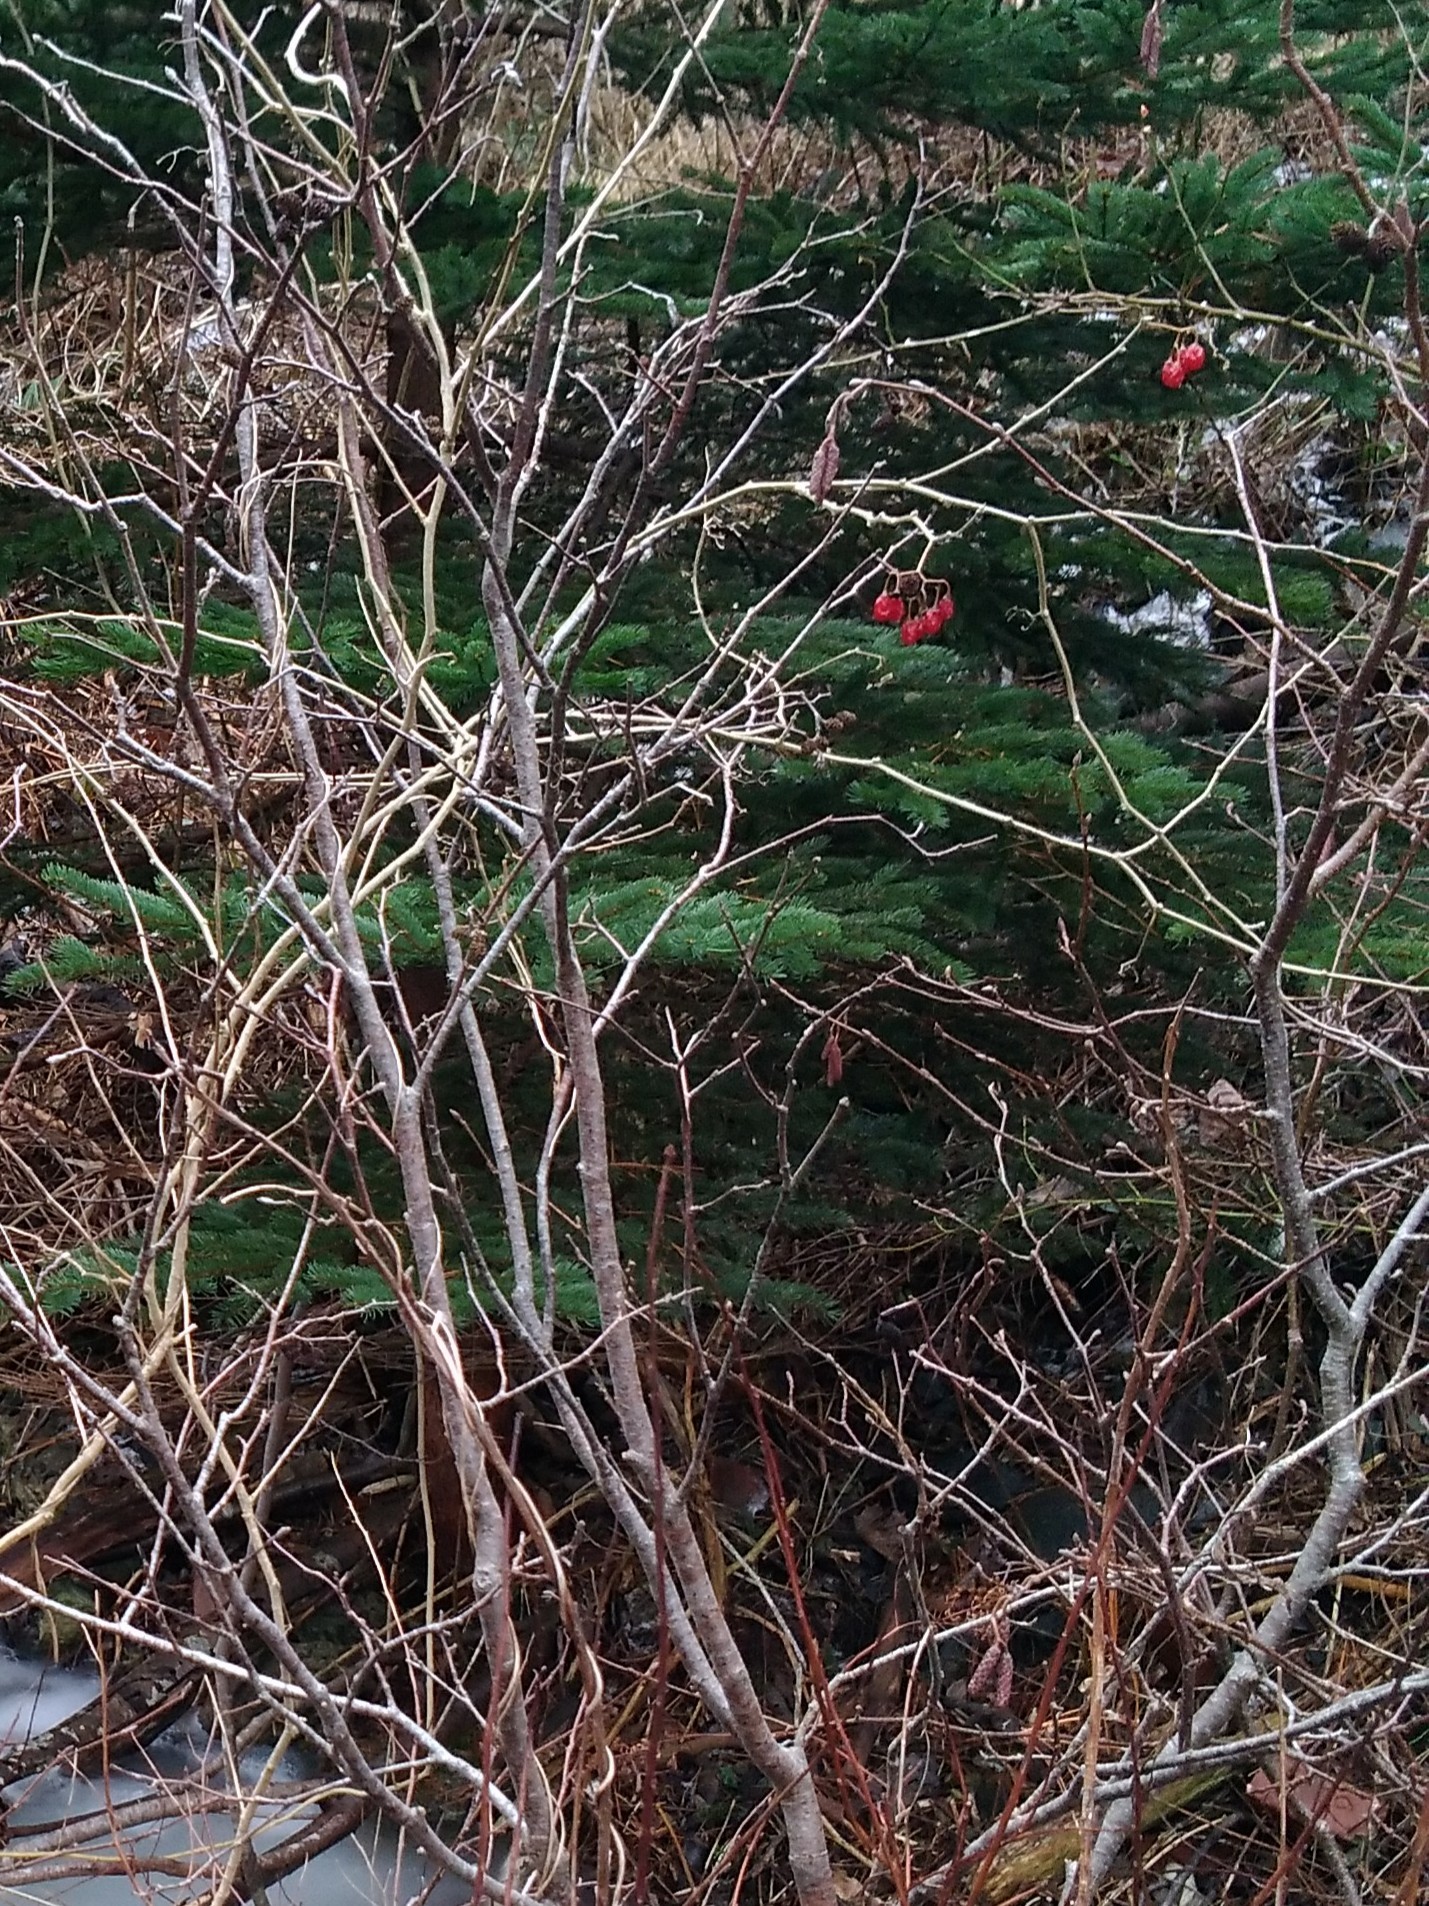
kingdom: Plantae
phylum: Tracheophyta
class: Magnoliopsida
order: Solanales
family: Solanaceae
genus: Solanum
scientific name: Solanum dulcamara
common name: Climbing nightshade
